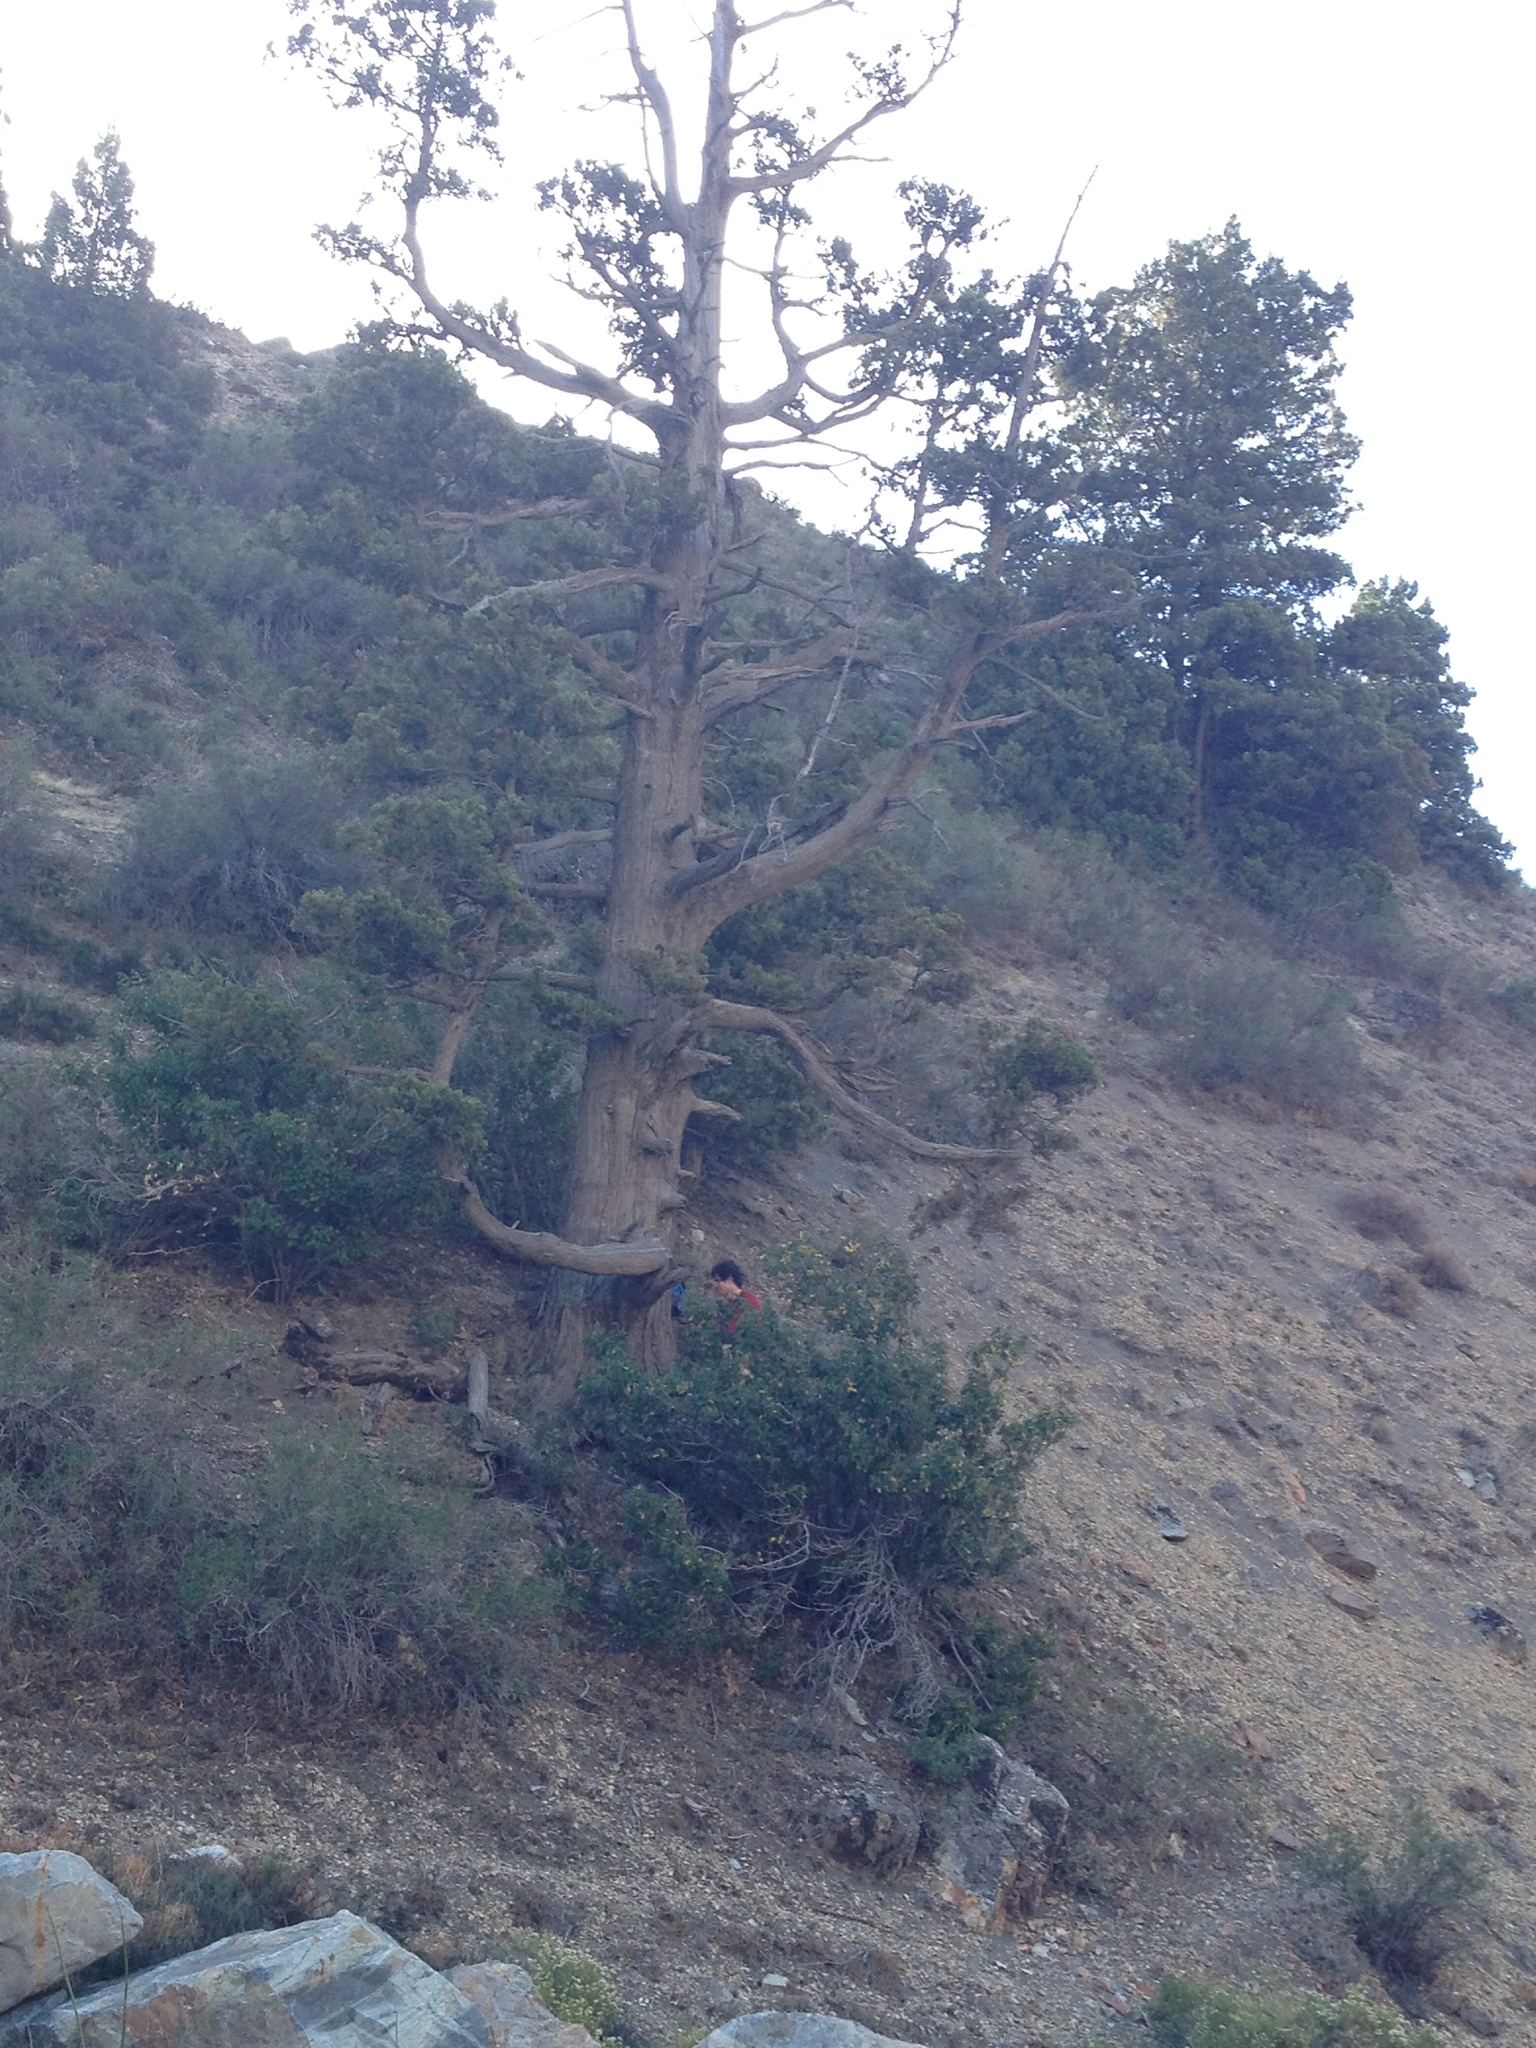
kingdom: Plantae
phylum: Tracheophyta
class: Pinopsida
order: Pinales
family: Cupressaceae
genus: Austrocedrus
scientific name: Austrocedrus chilensis
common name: Chilean incense-cedar
